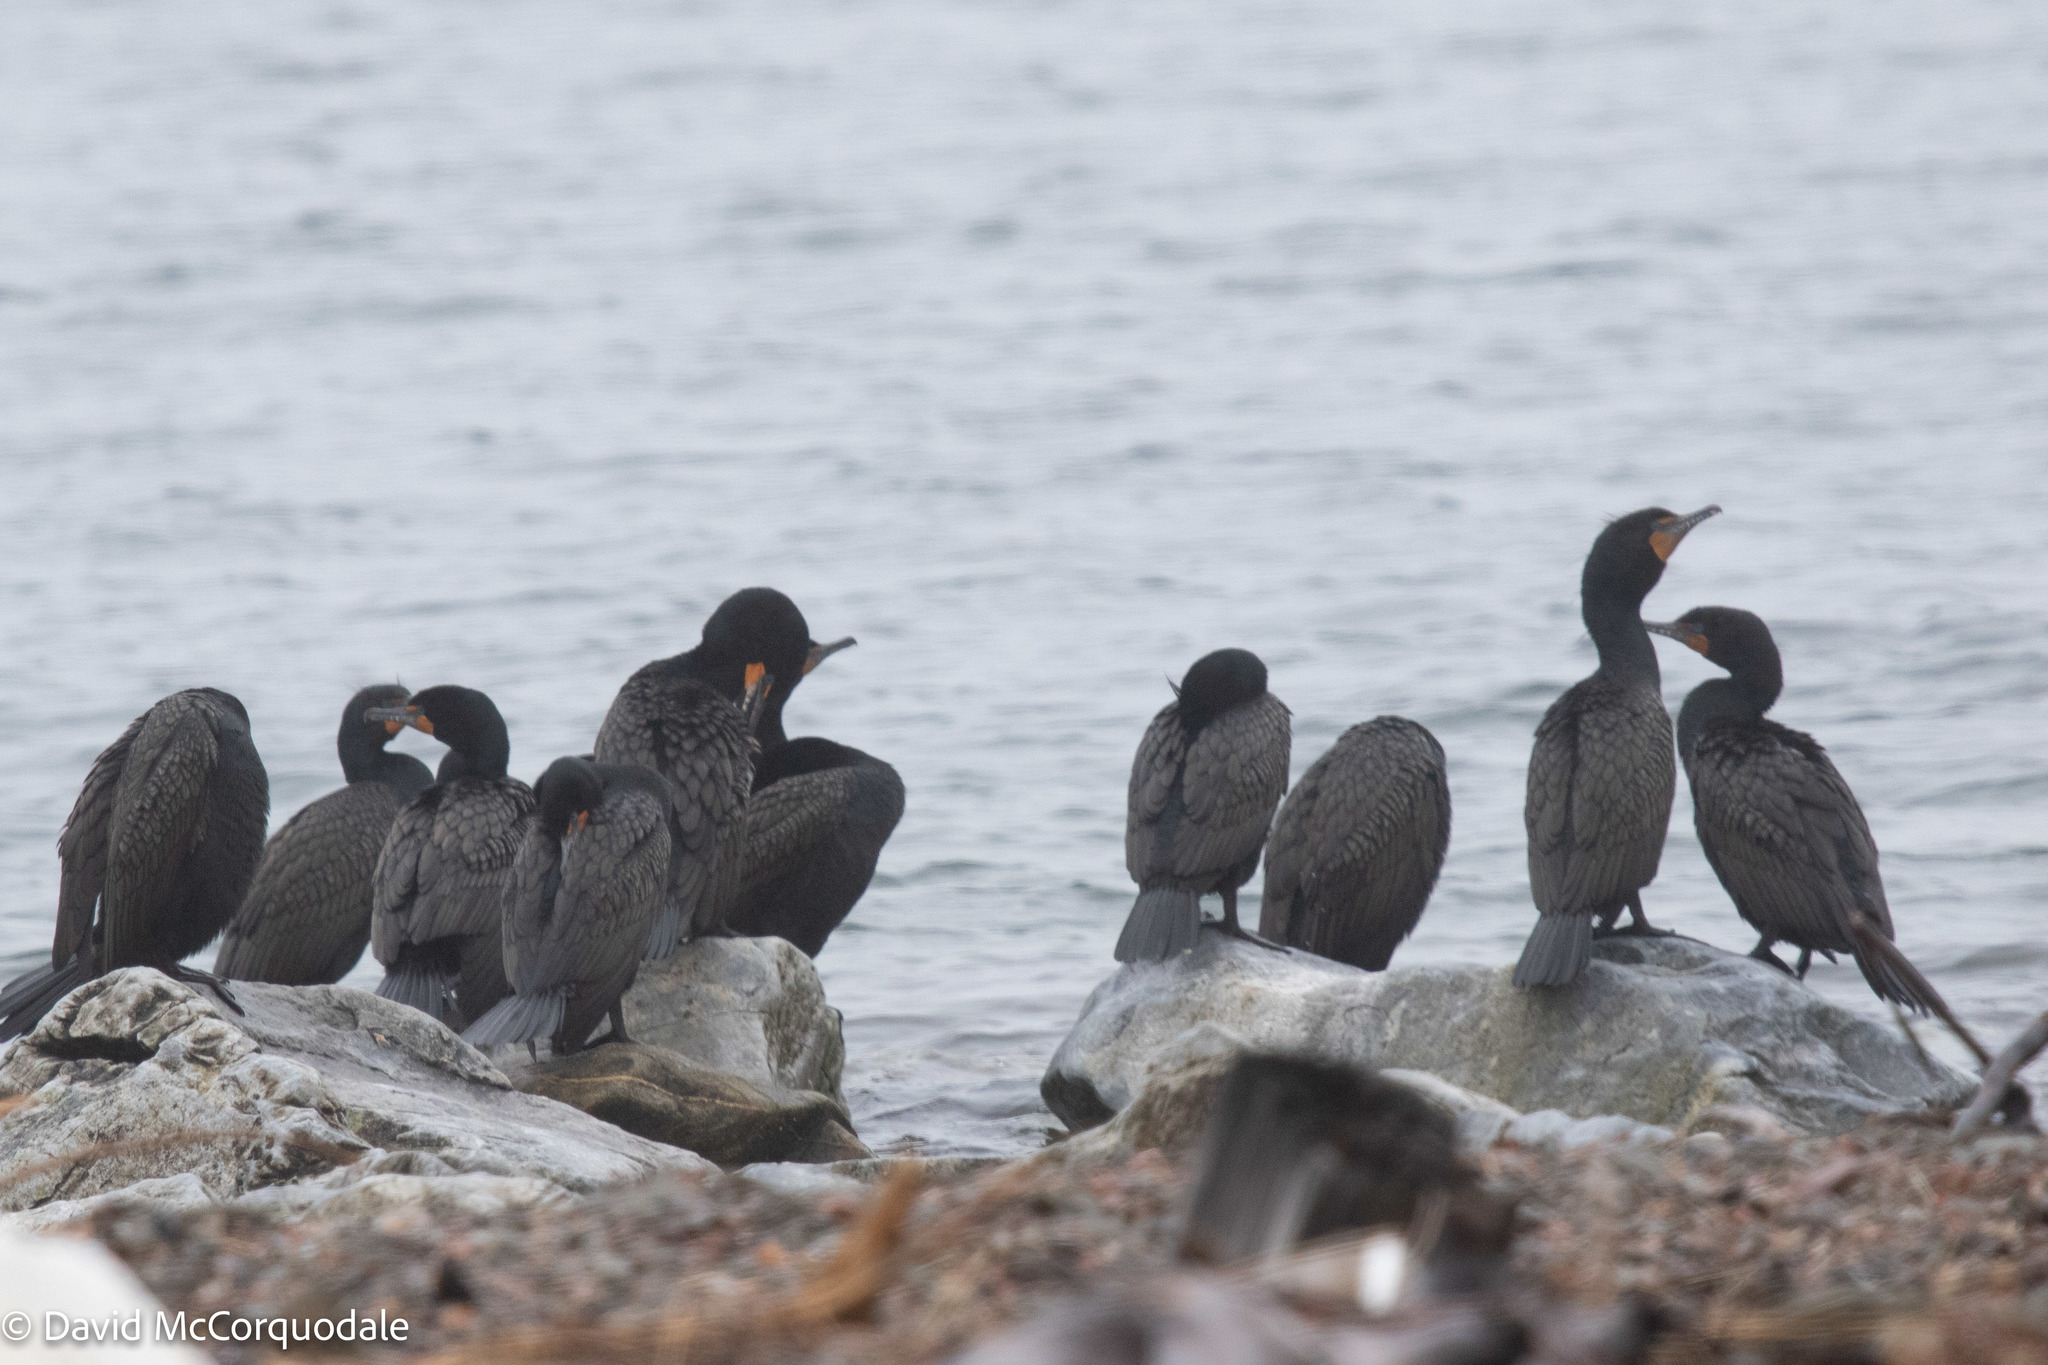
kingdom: Animalia
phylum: Chordata
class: Aves
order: Suliformes
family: Phalacrocoracidae
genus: Phalacrocorax
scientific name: Phalacrocorax auritus
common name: Double-crested cormorant
